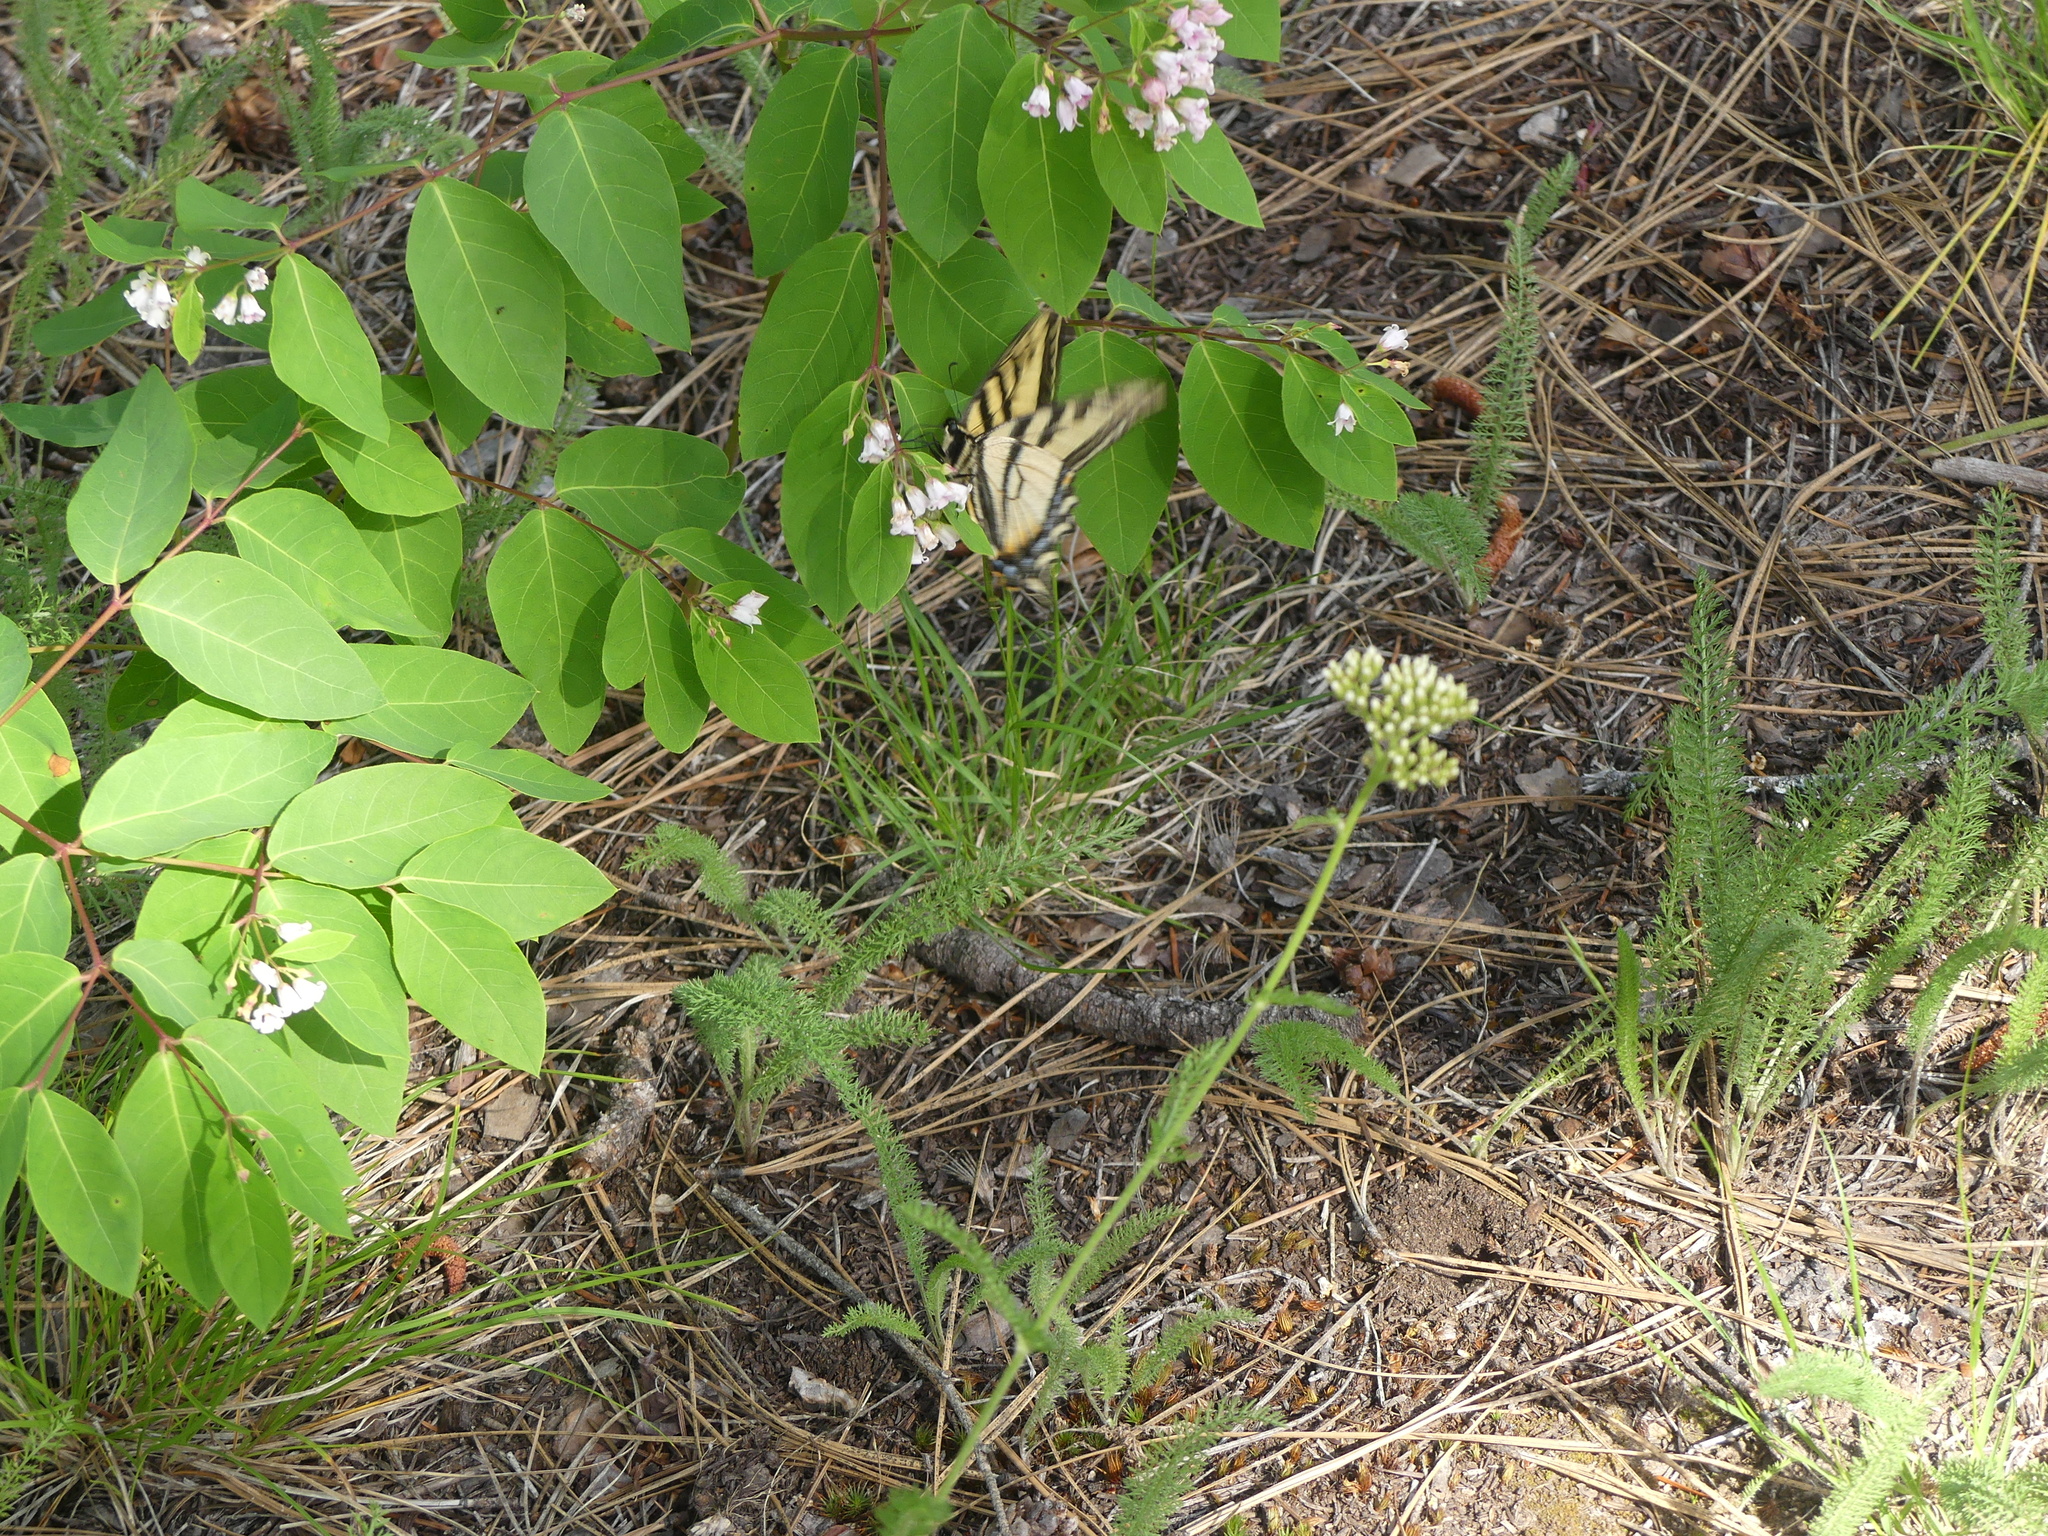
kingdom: Animalia
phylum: Arthropoda
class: Insecta
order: Lepidoptera
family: Papilionidae
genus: Papilio
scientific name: Papilio canadensis
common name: Canadian tiger swallowtail
